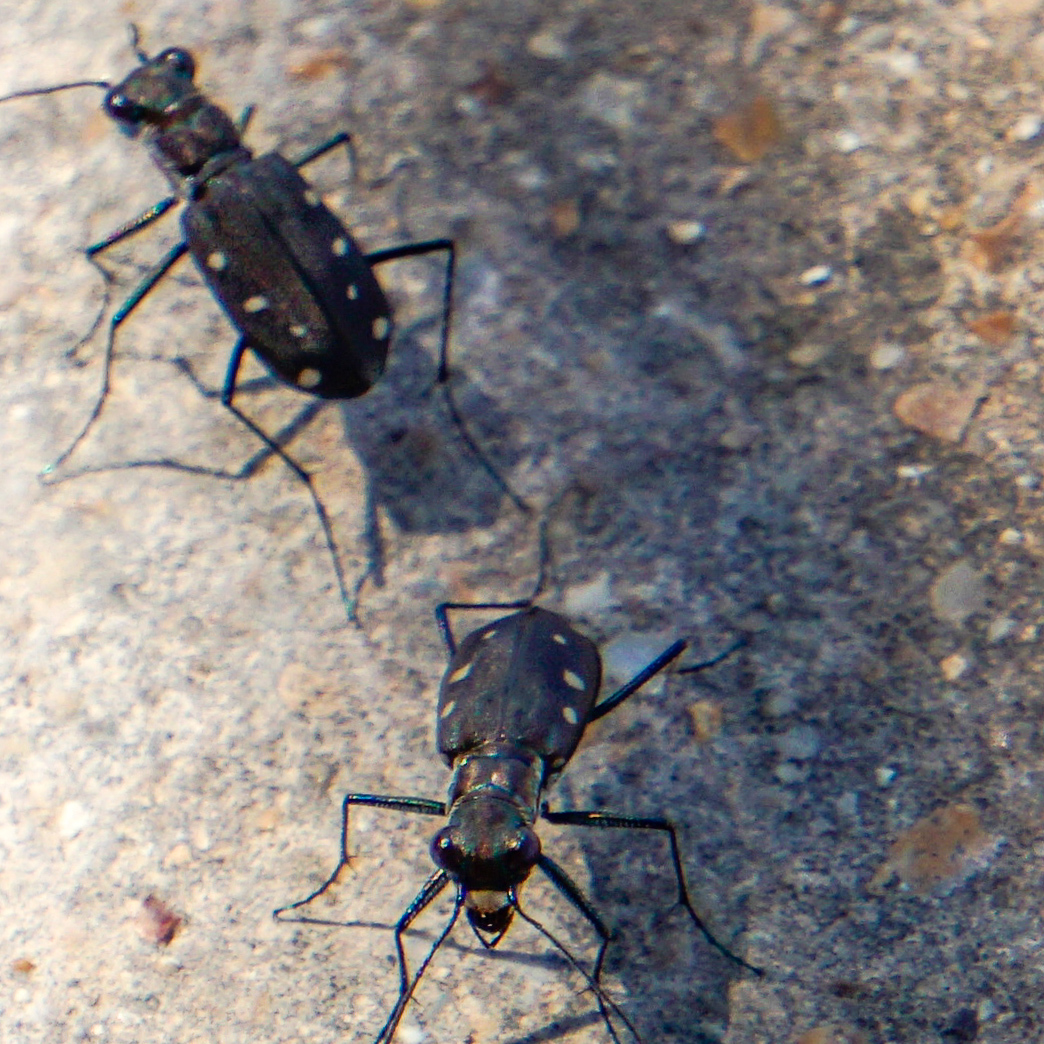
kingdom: Animalia
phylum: Arthropoda
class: Insecta
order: Coleoptera
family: Carabidae
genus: Cicindela
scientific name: Cicindela ocellata
